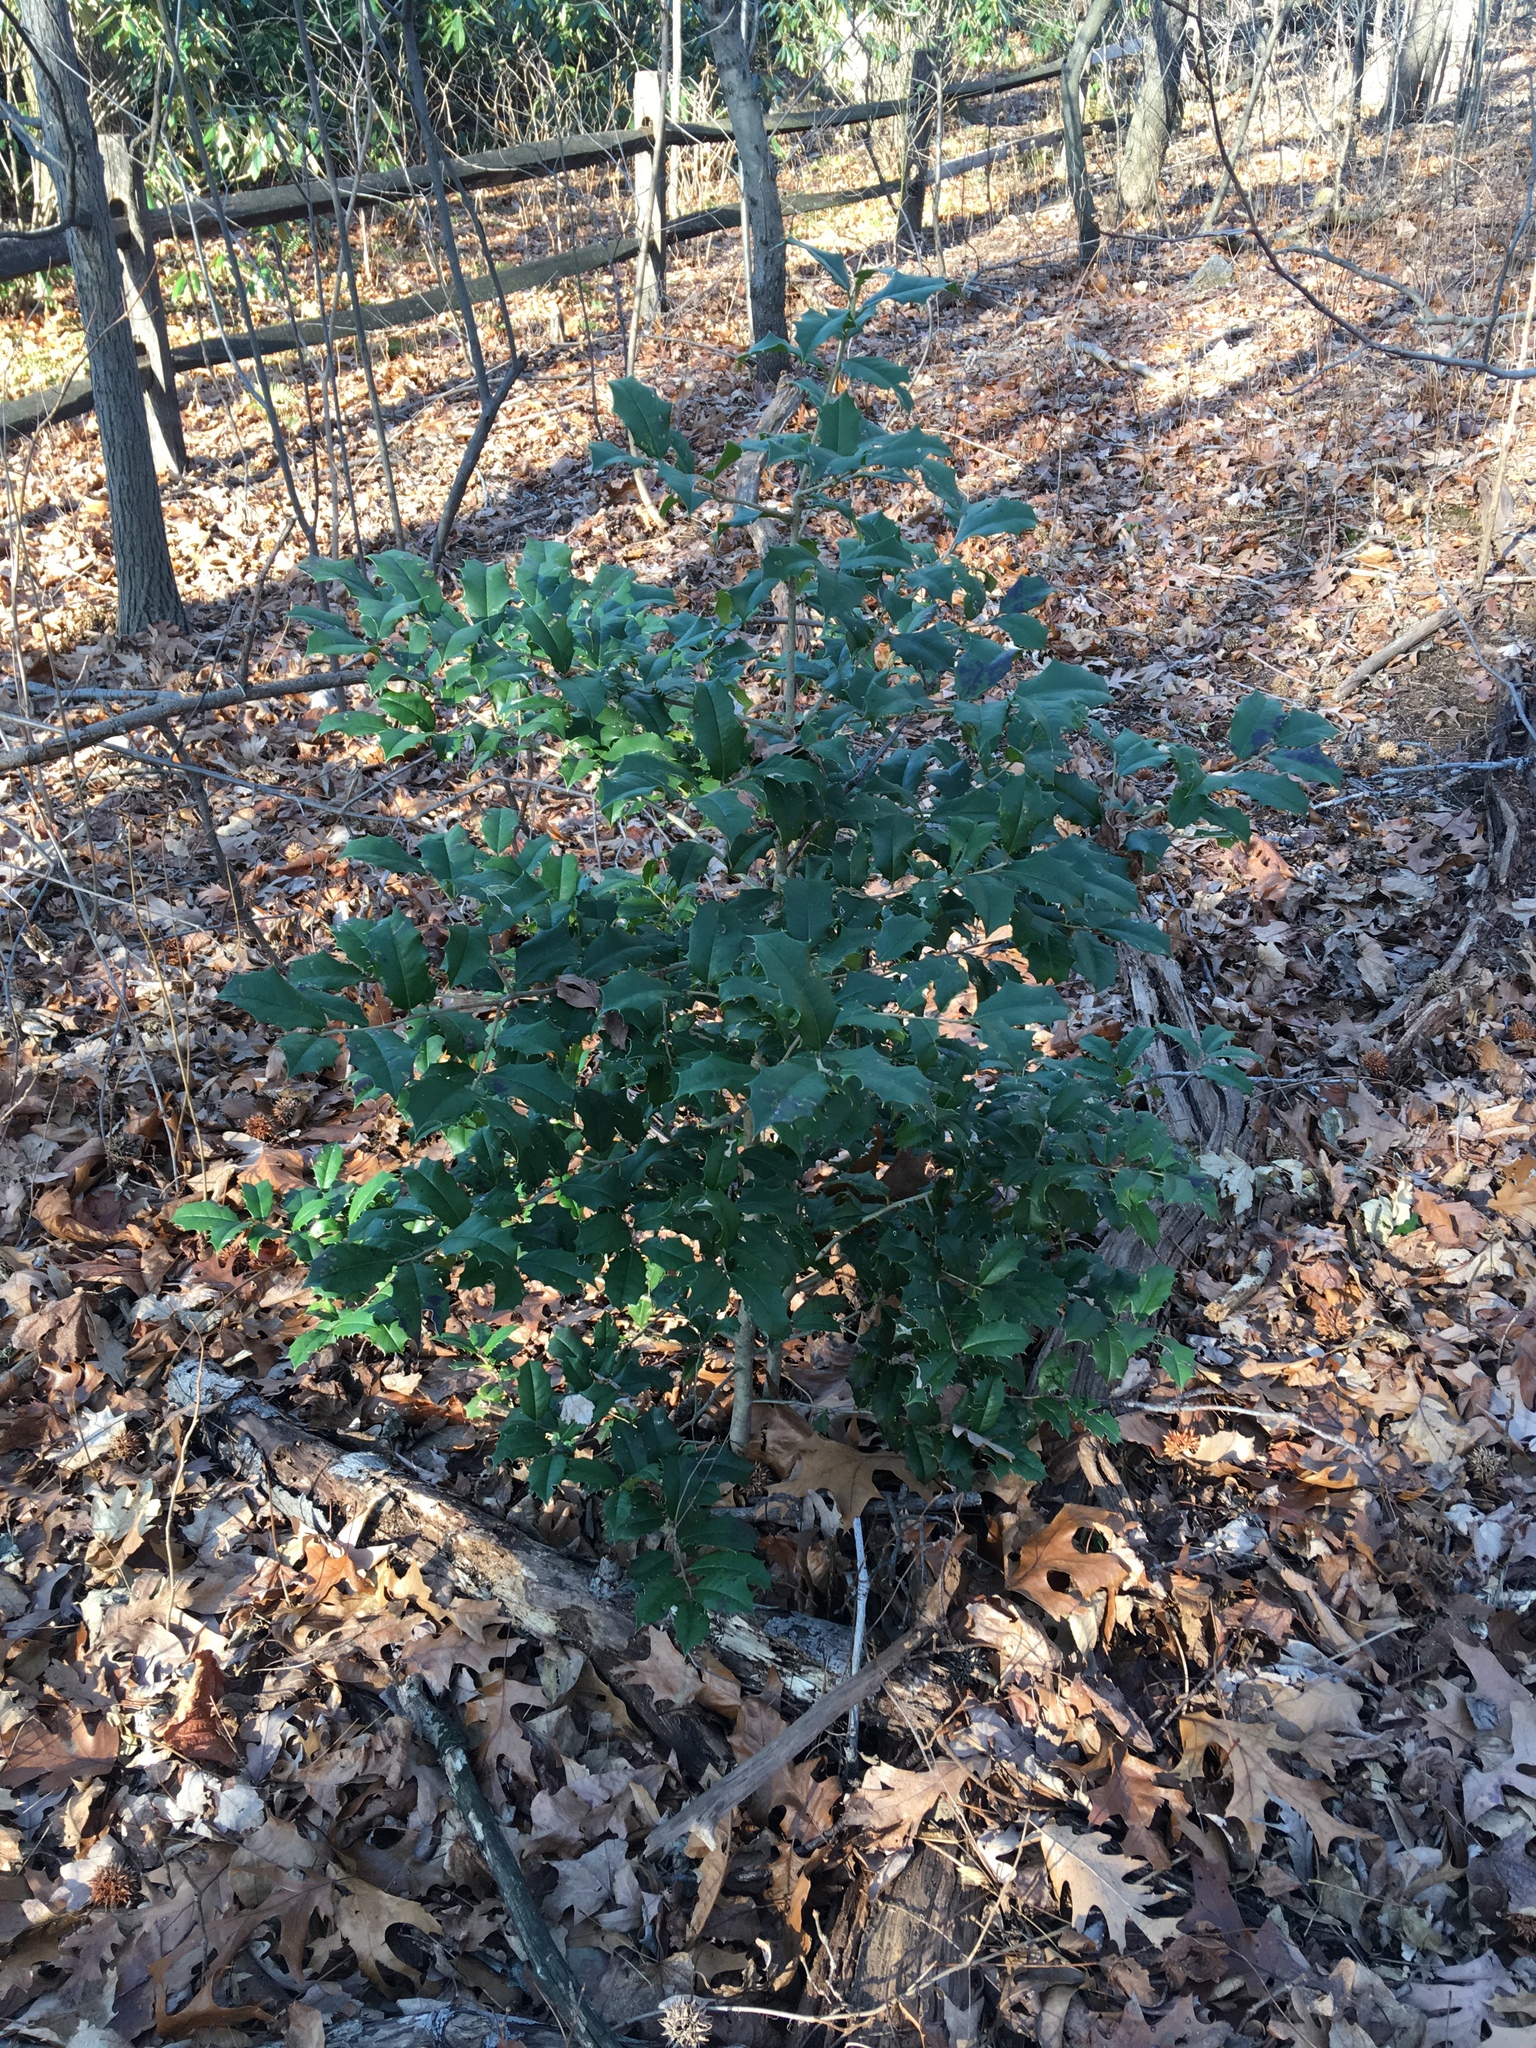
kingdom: Plantae
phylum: Tracheophyta
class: Magnoliopsida
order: Aquifoliales
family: Aquifoliaceae
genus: Ilex
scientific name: Ilex opaca
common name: American holly
